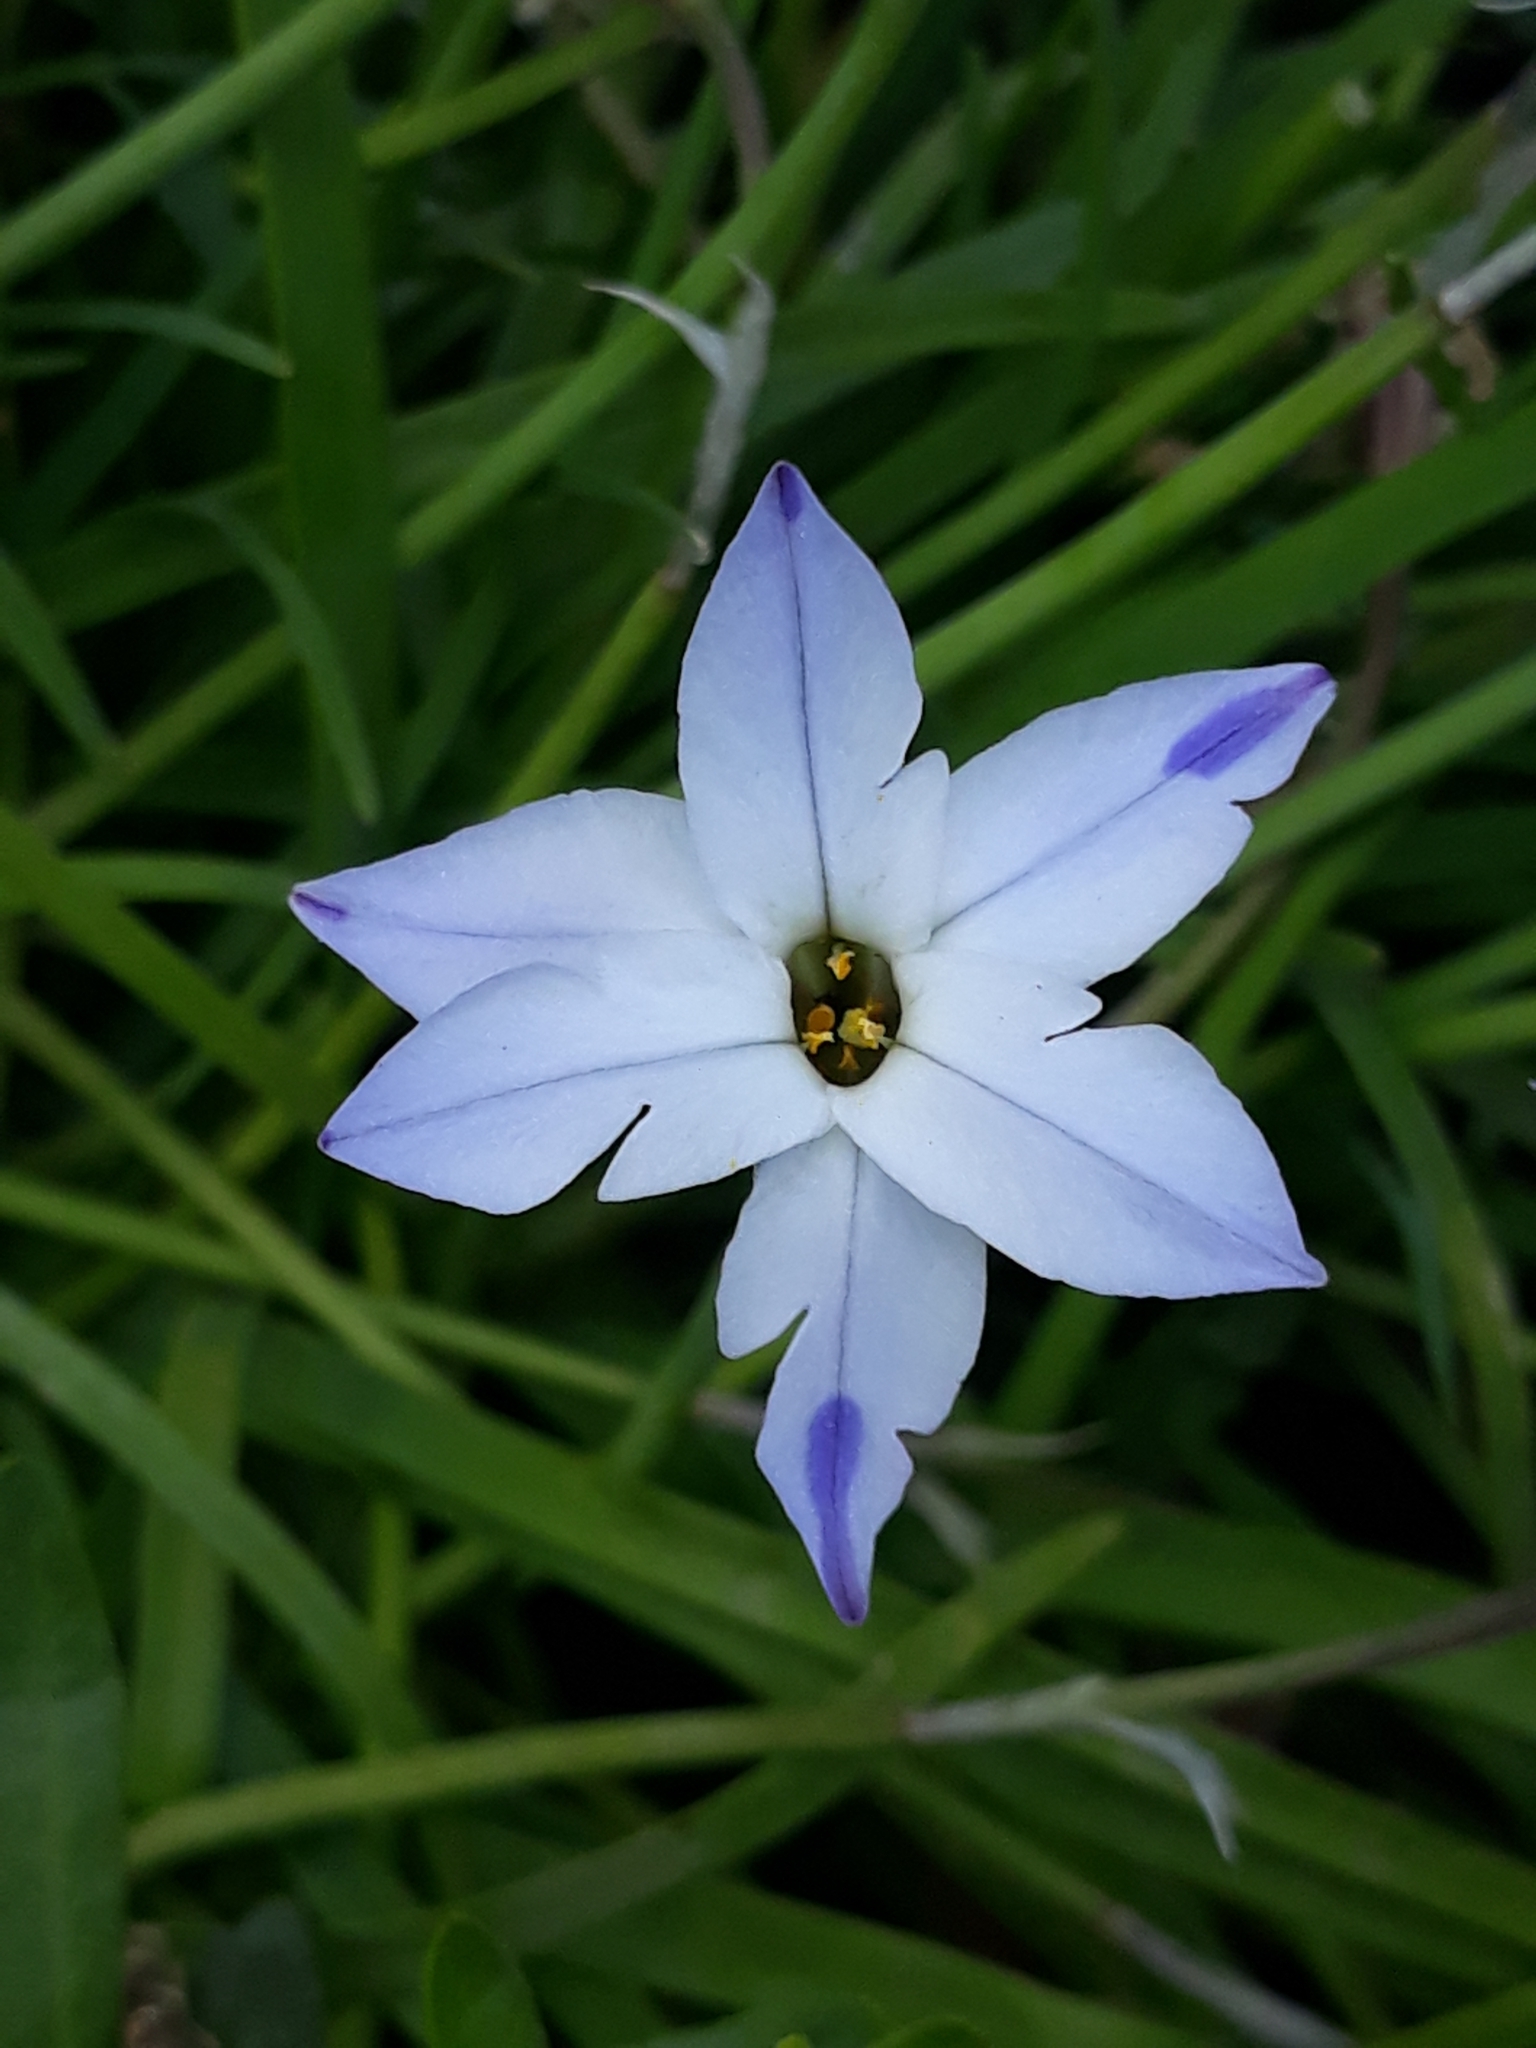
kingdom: Plantae
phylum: Tracheophyta
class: Liliopsida
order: Asparagales
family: Amaryllidaceae
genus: Ipheion
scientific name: Ipheion uniflorum
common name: Spring starflower
